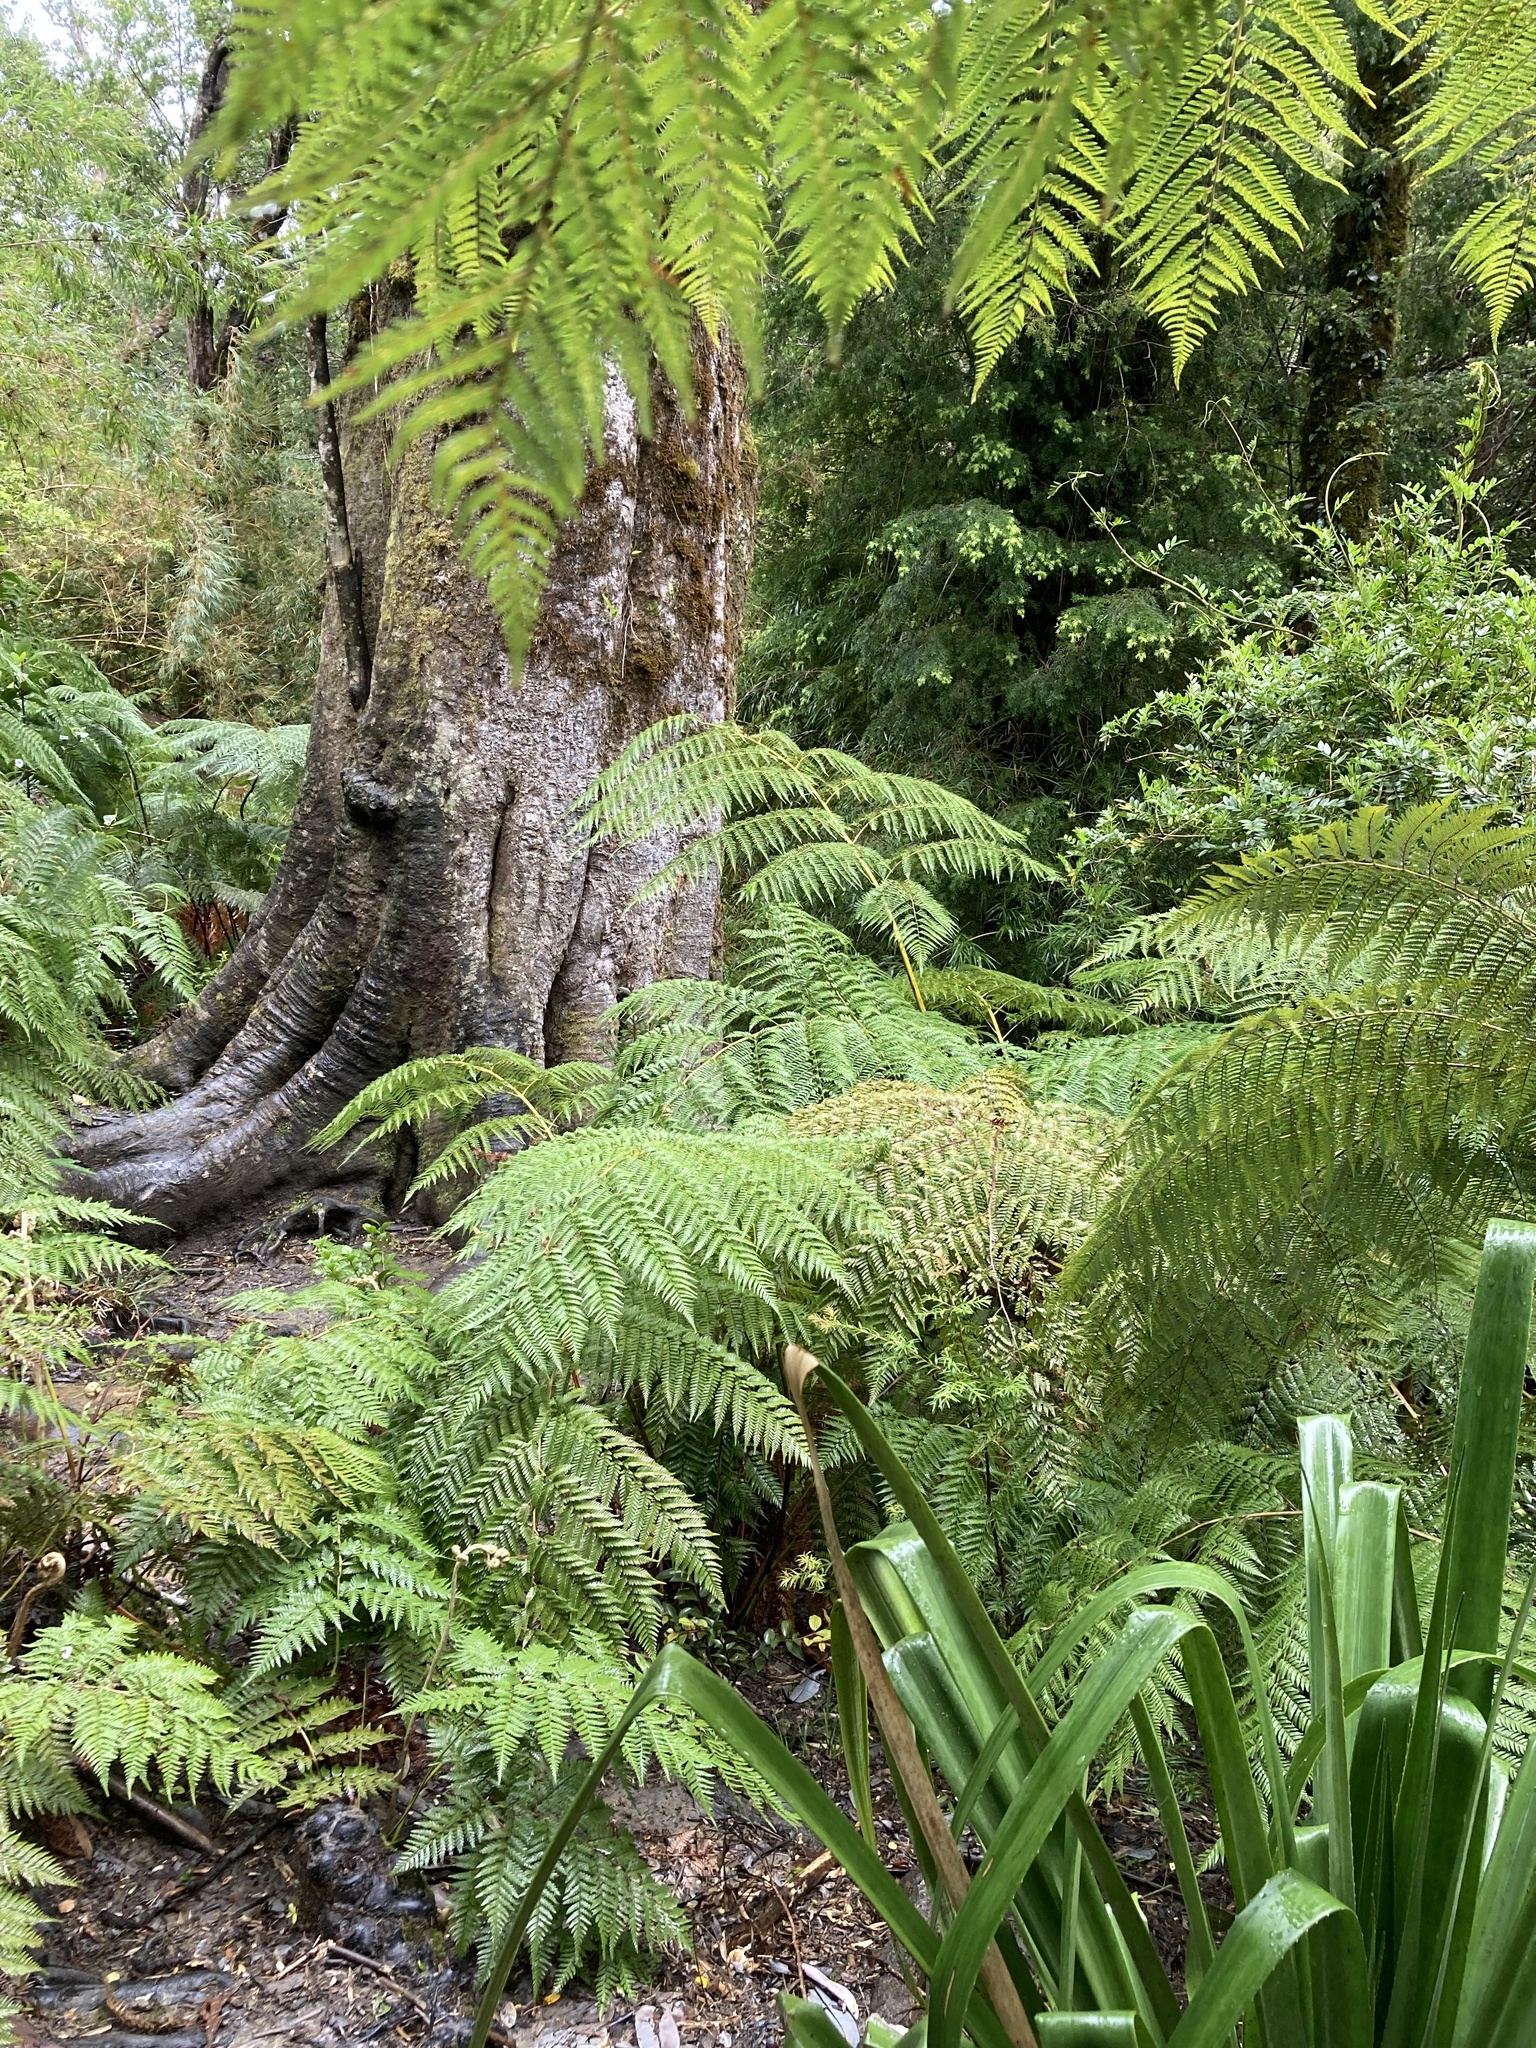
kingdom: Plantae
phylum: Tracheophyta
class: Polypodiopsida
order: Cyatheales
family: Dicksoniaceae
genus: Lophosoria
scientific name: Lophosoria quadripinnata
